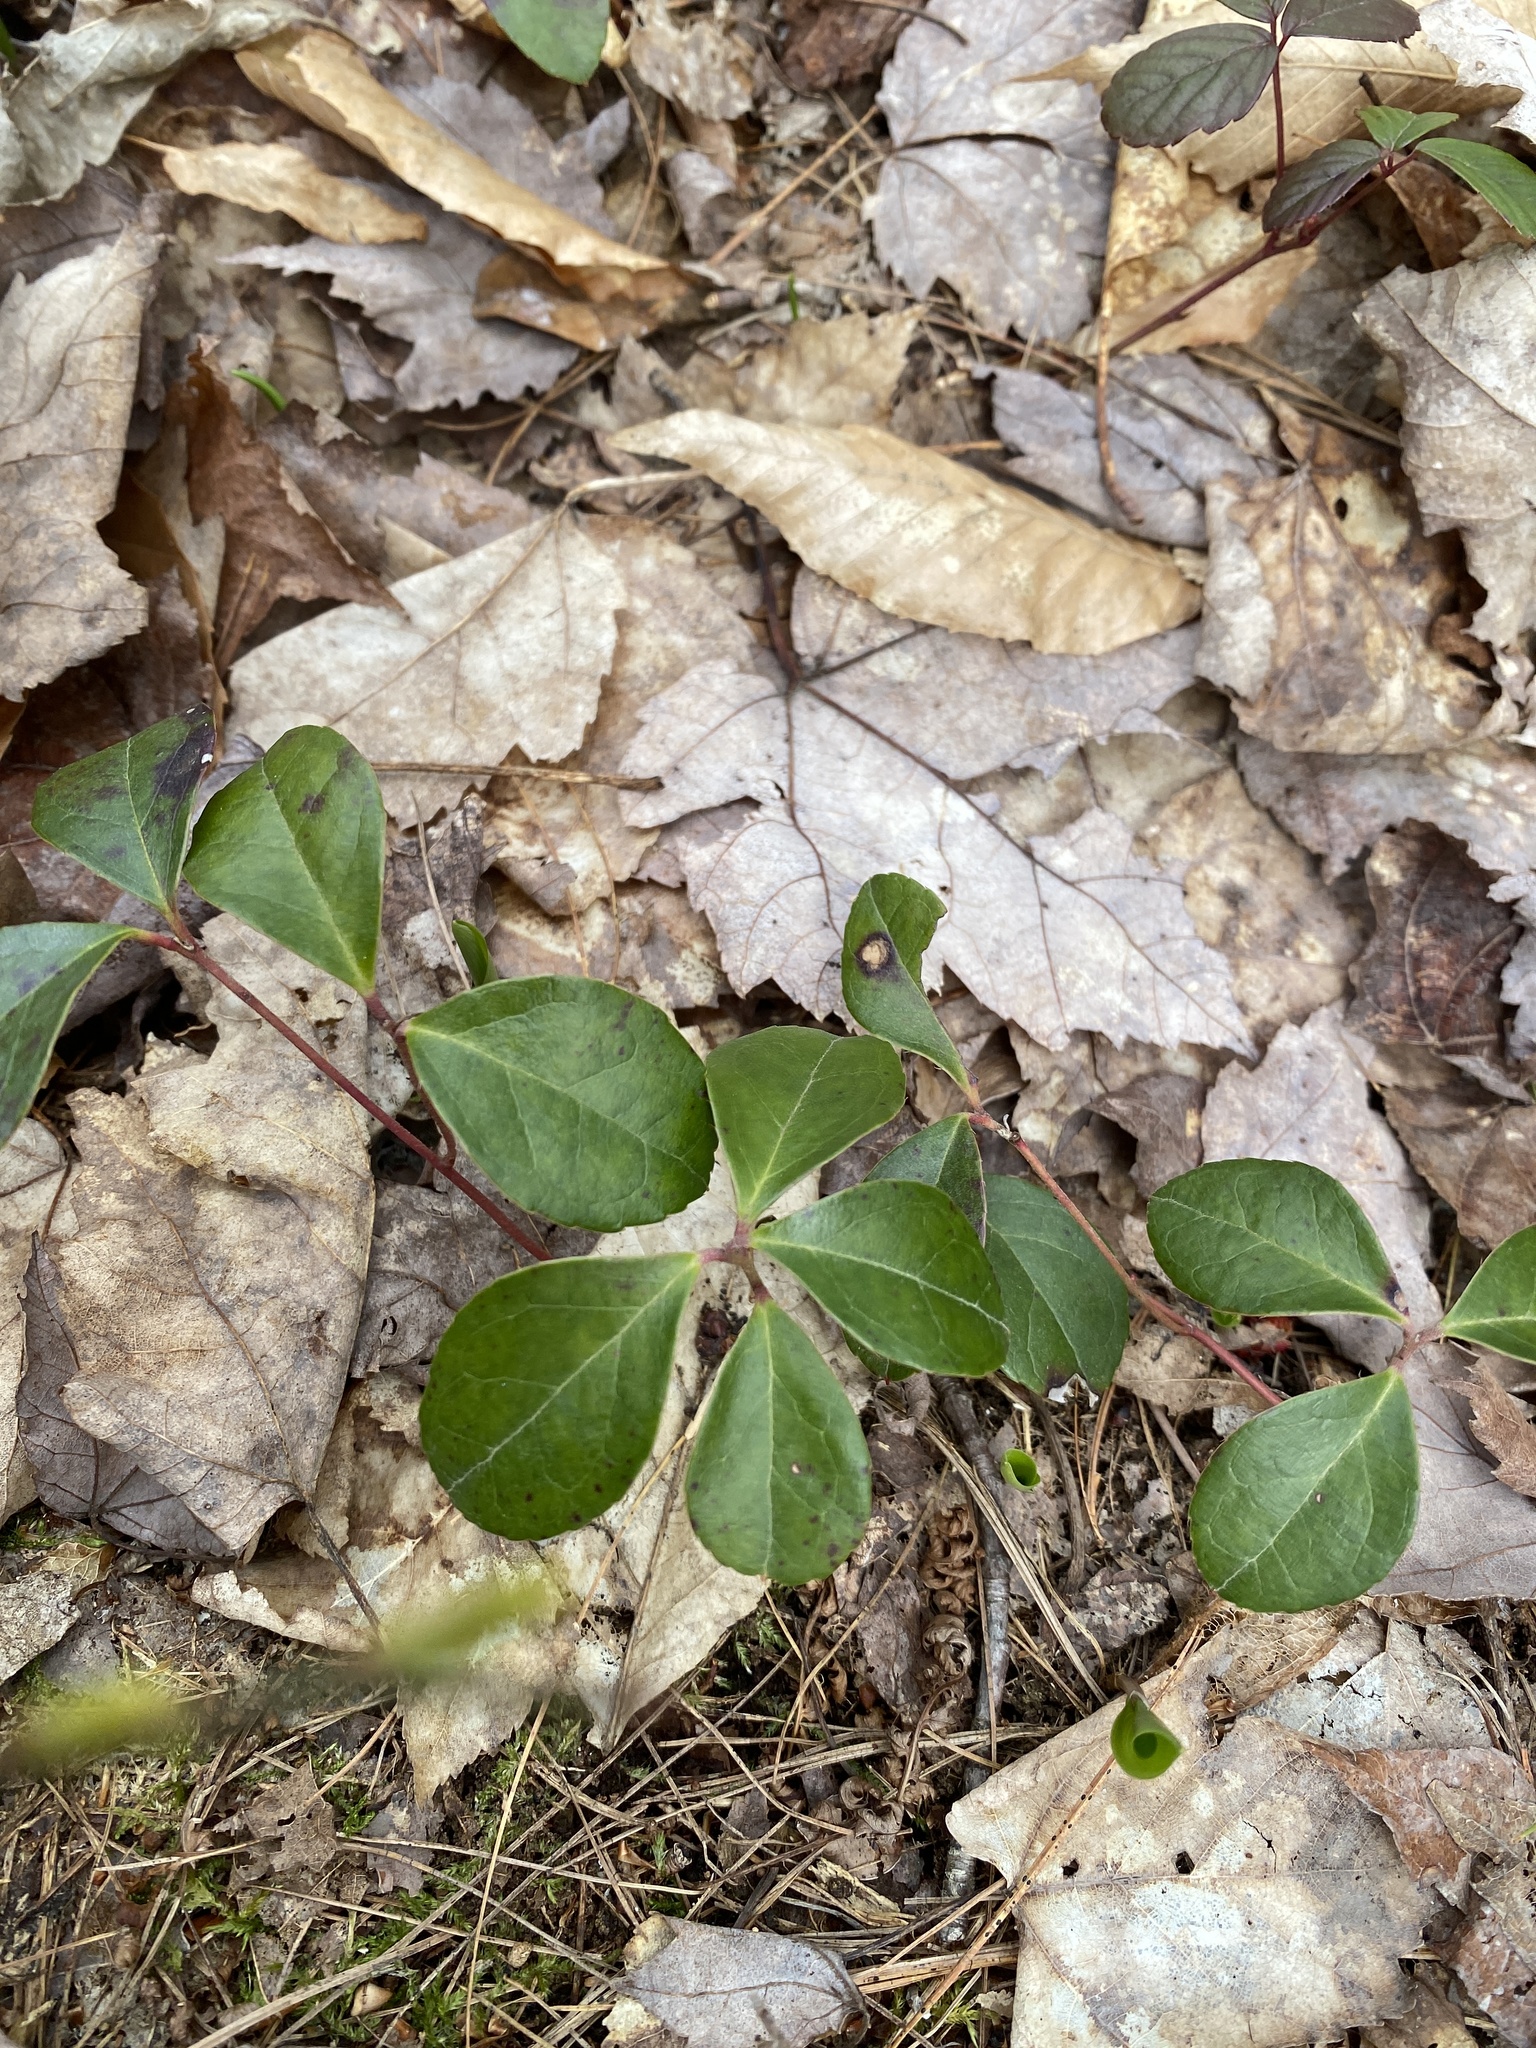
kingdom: Plantae
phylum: Tracheophyta
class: Magnoliopsida
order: Ericales
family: Ericaceae
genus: Gaultheria
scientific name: Gaultheria procumbens
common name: Checkerberry
